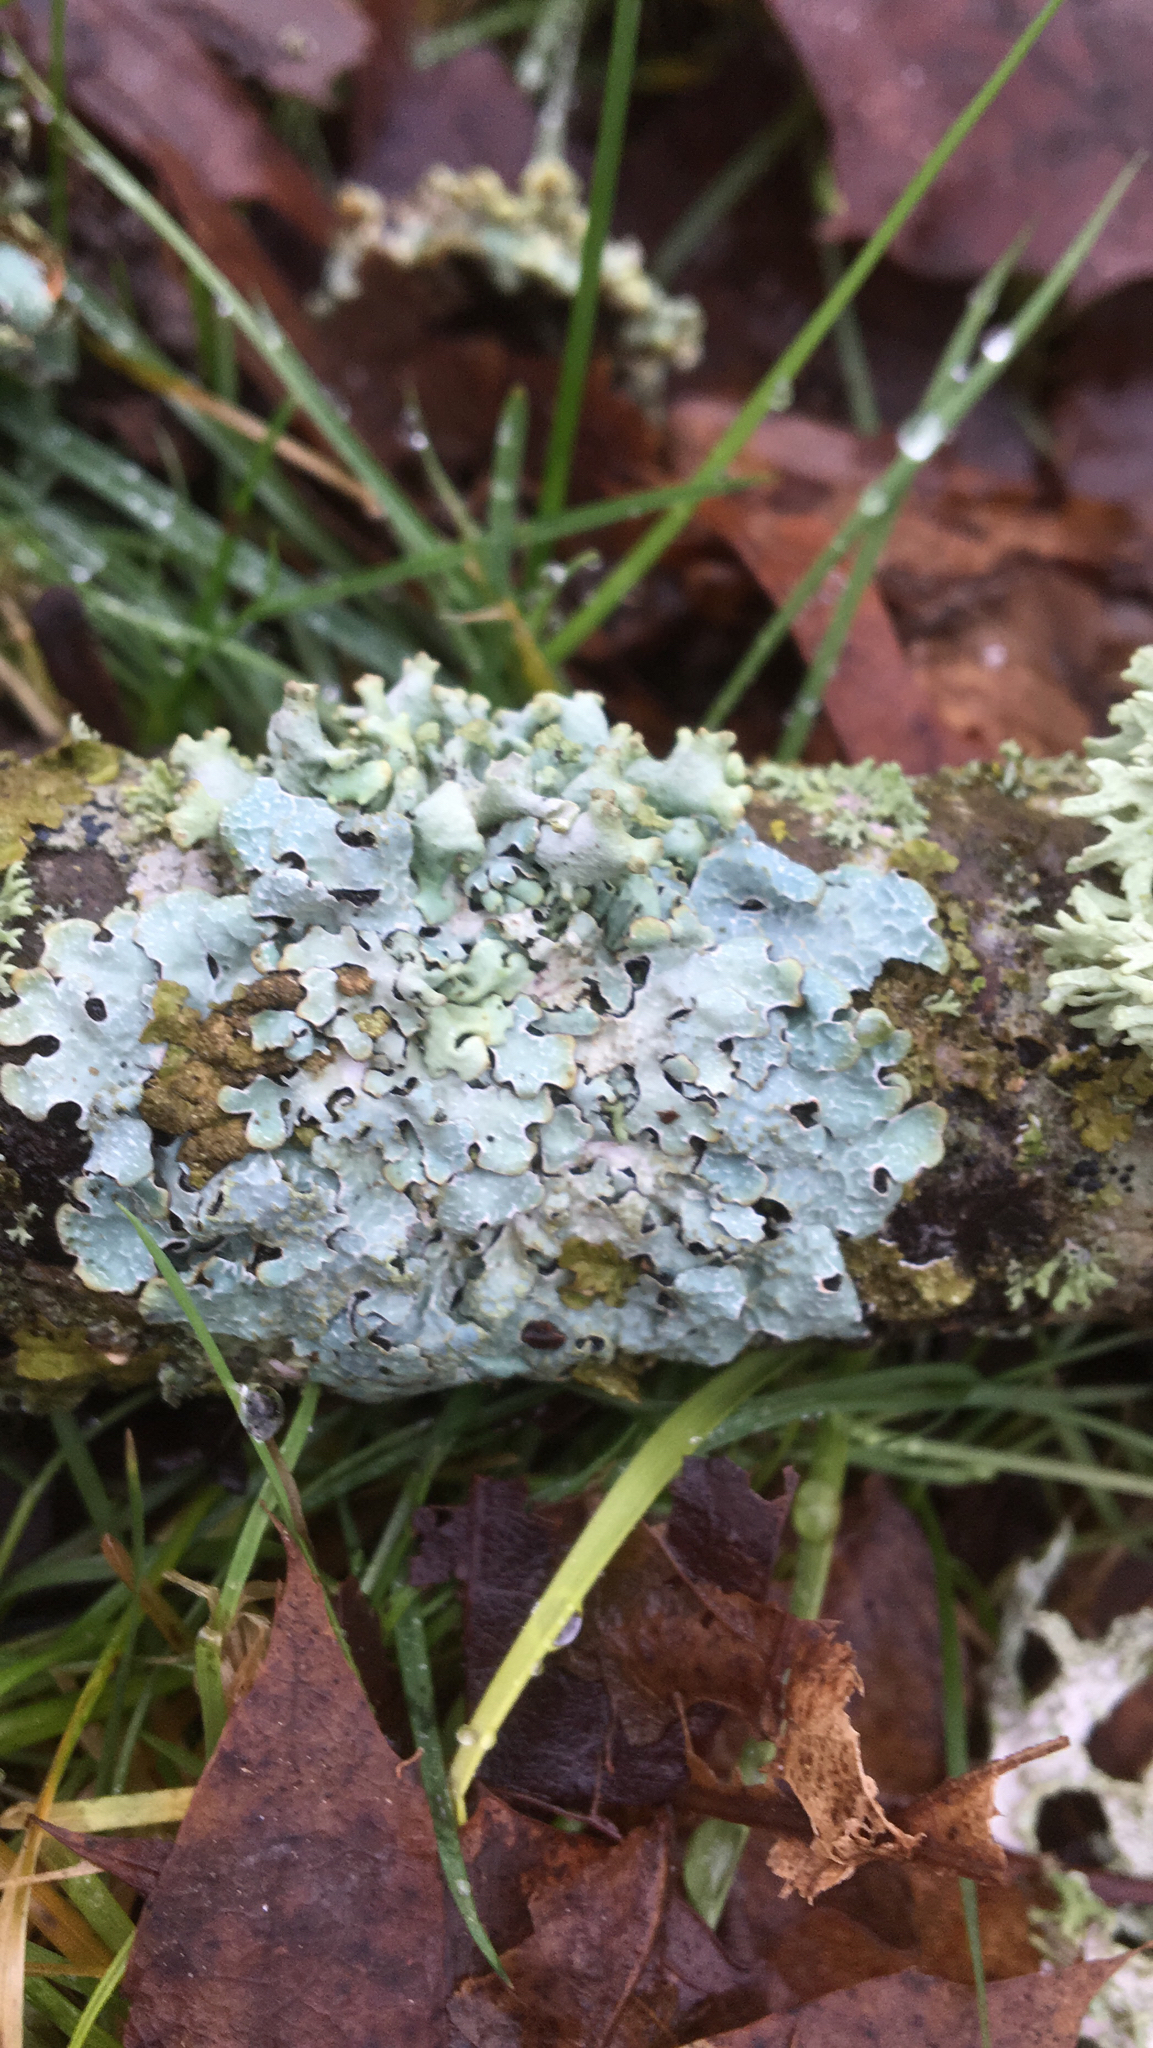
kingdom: Fungi
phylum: Ascomycota
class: Lecanoromycetes
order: Lecanorales
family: Parmeliaceae
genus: Parmelia
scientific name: Parmelia sulcata
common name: Netted shield lichen
